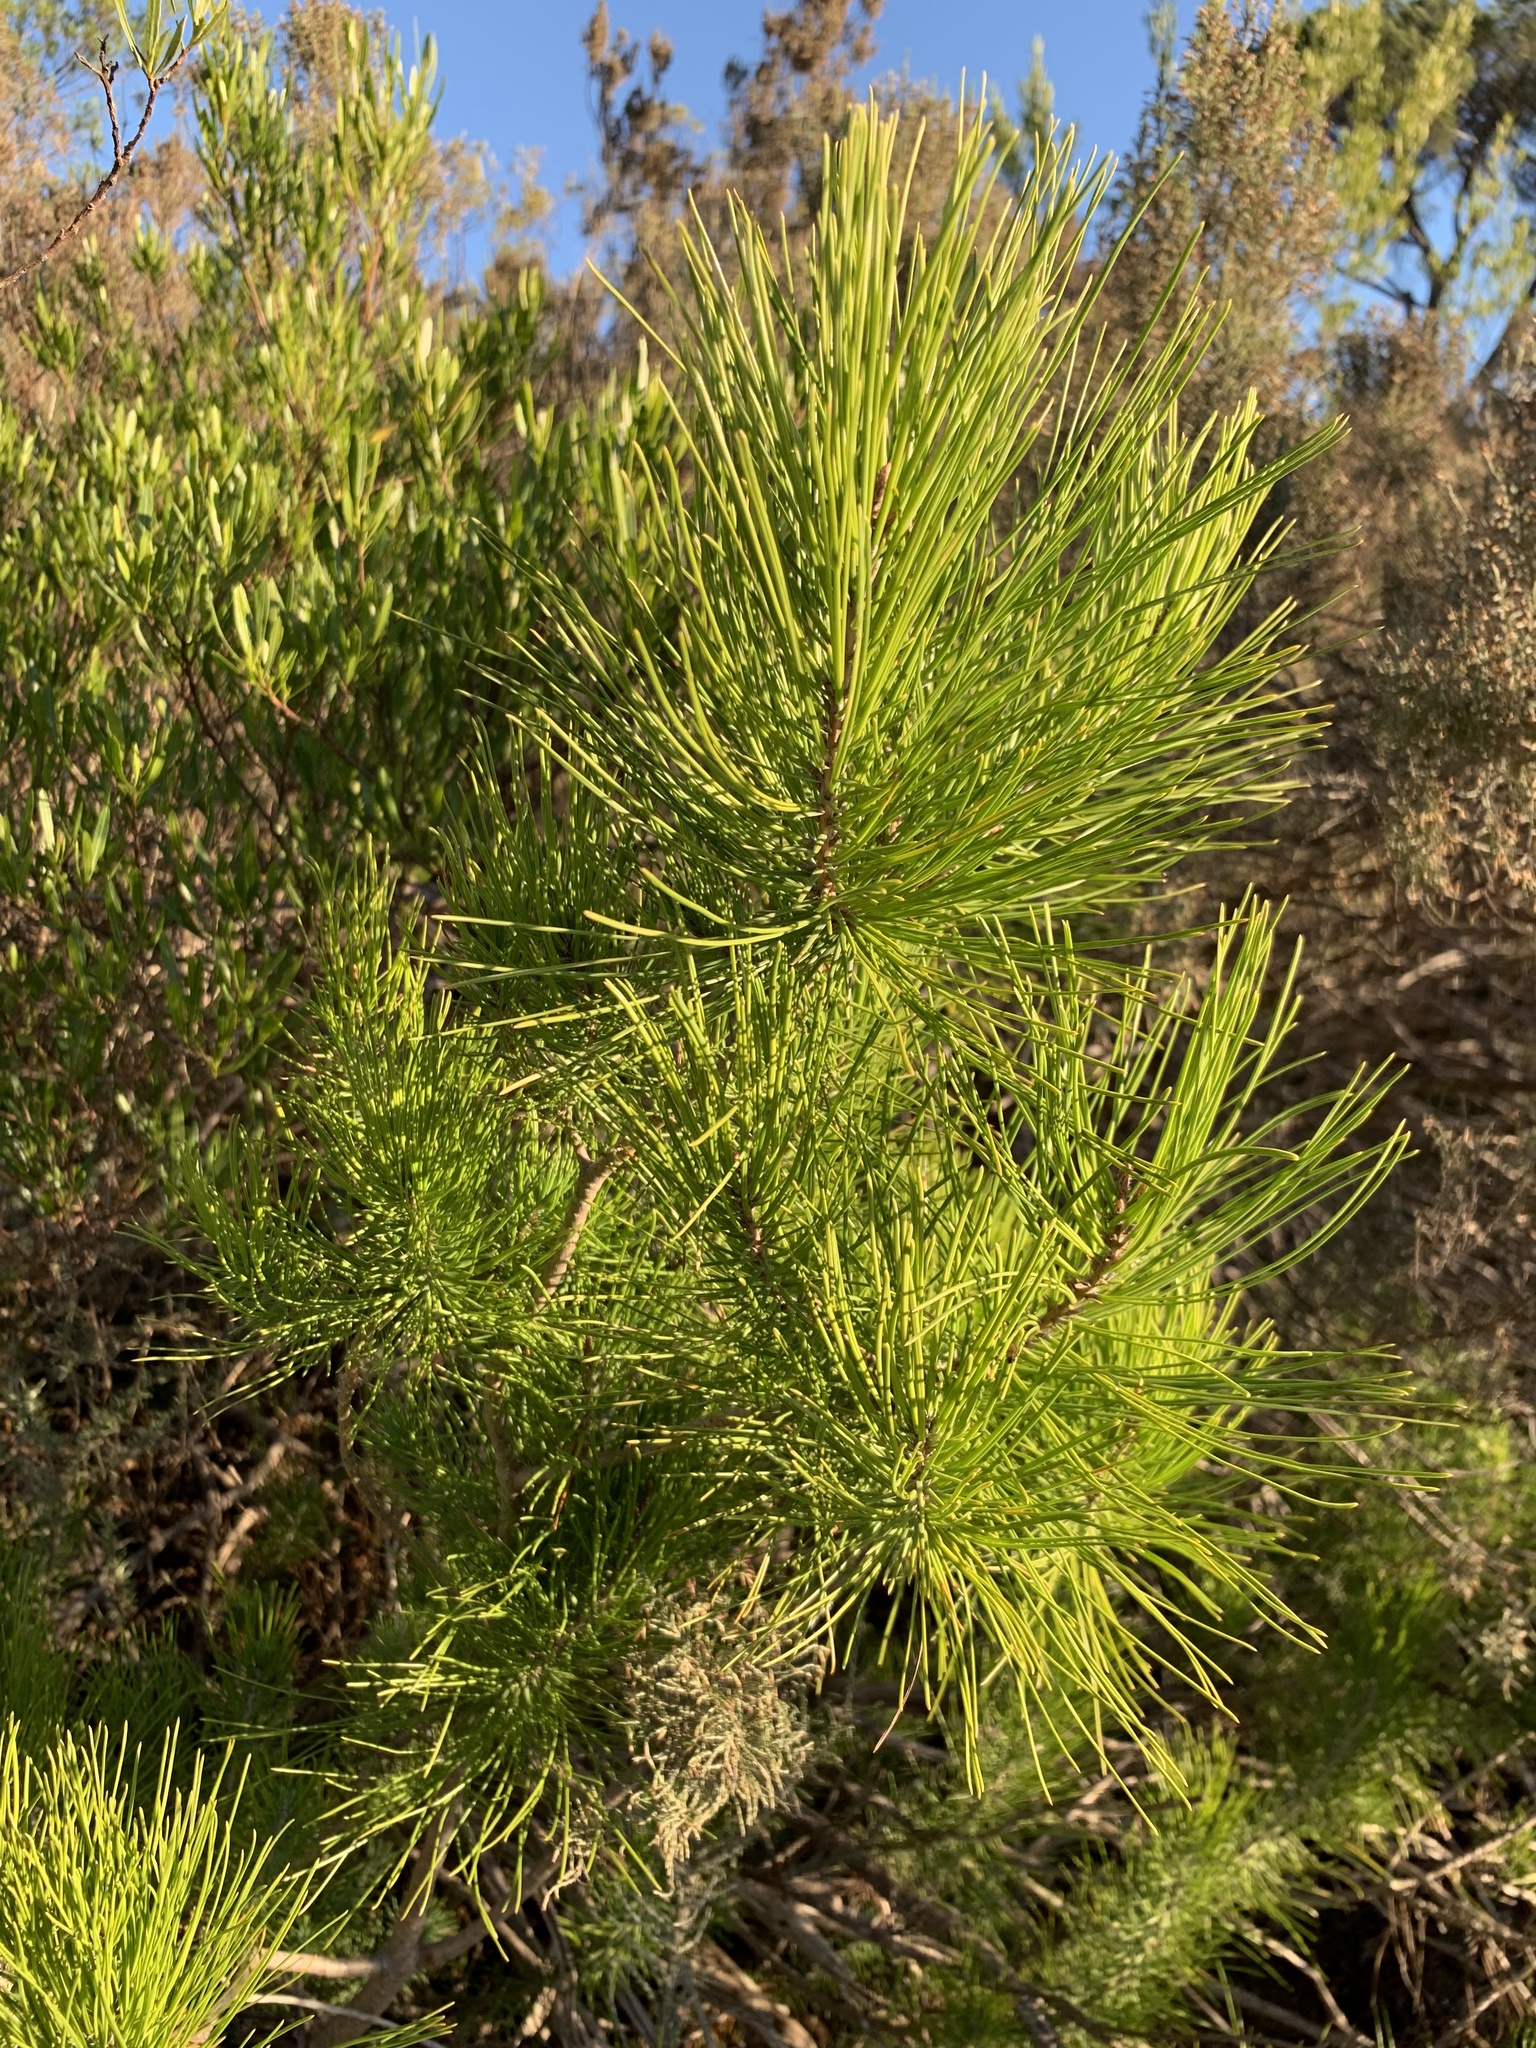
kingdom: Plantae
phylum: Tracheophyta
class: Pinopsida
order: Pinales
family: Pinaceae
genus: Pinus
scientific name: Pinus halepensis
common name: Aleppo pine
